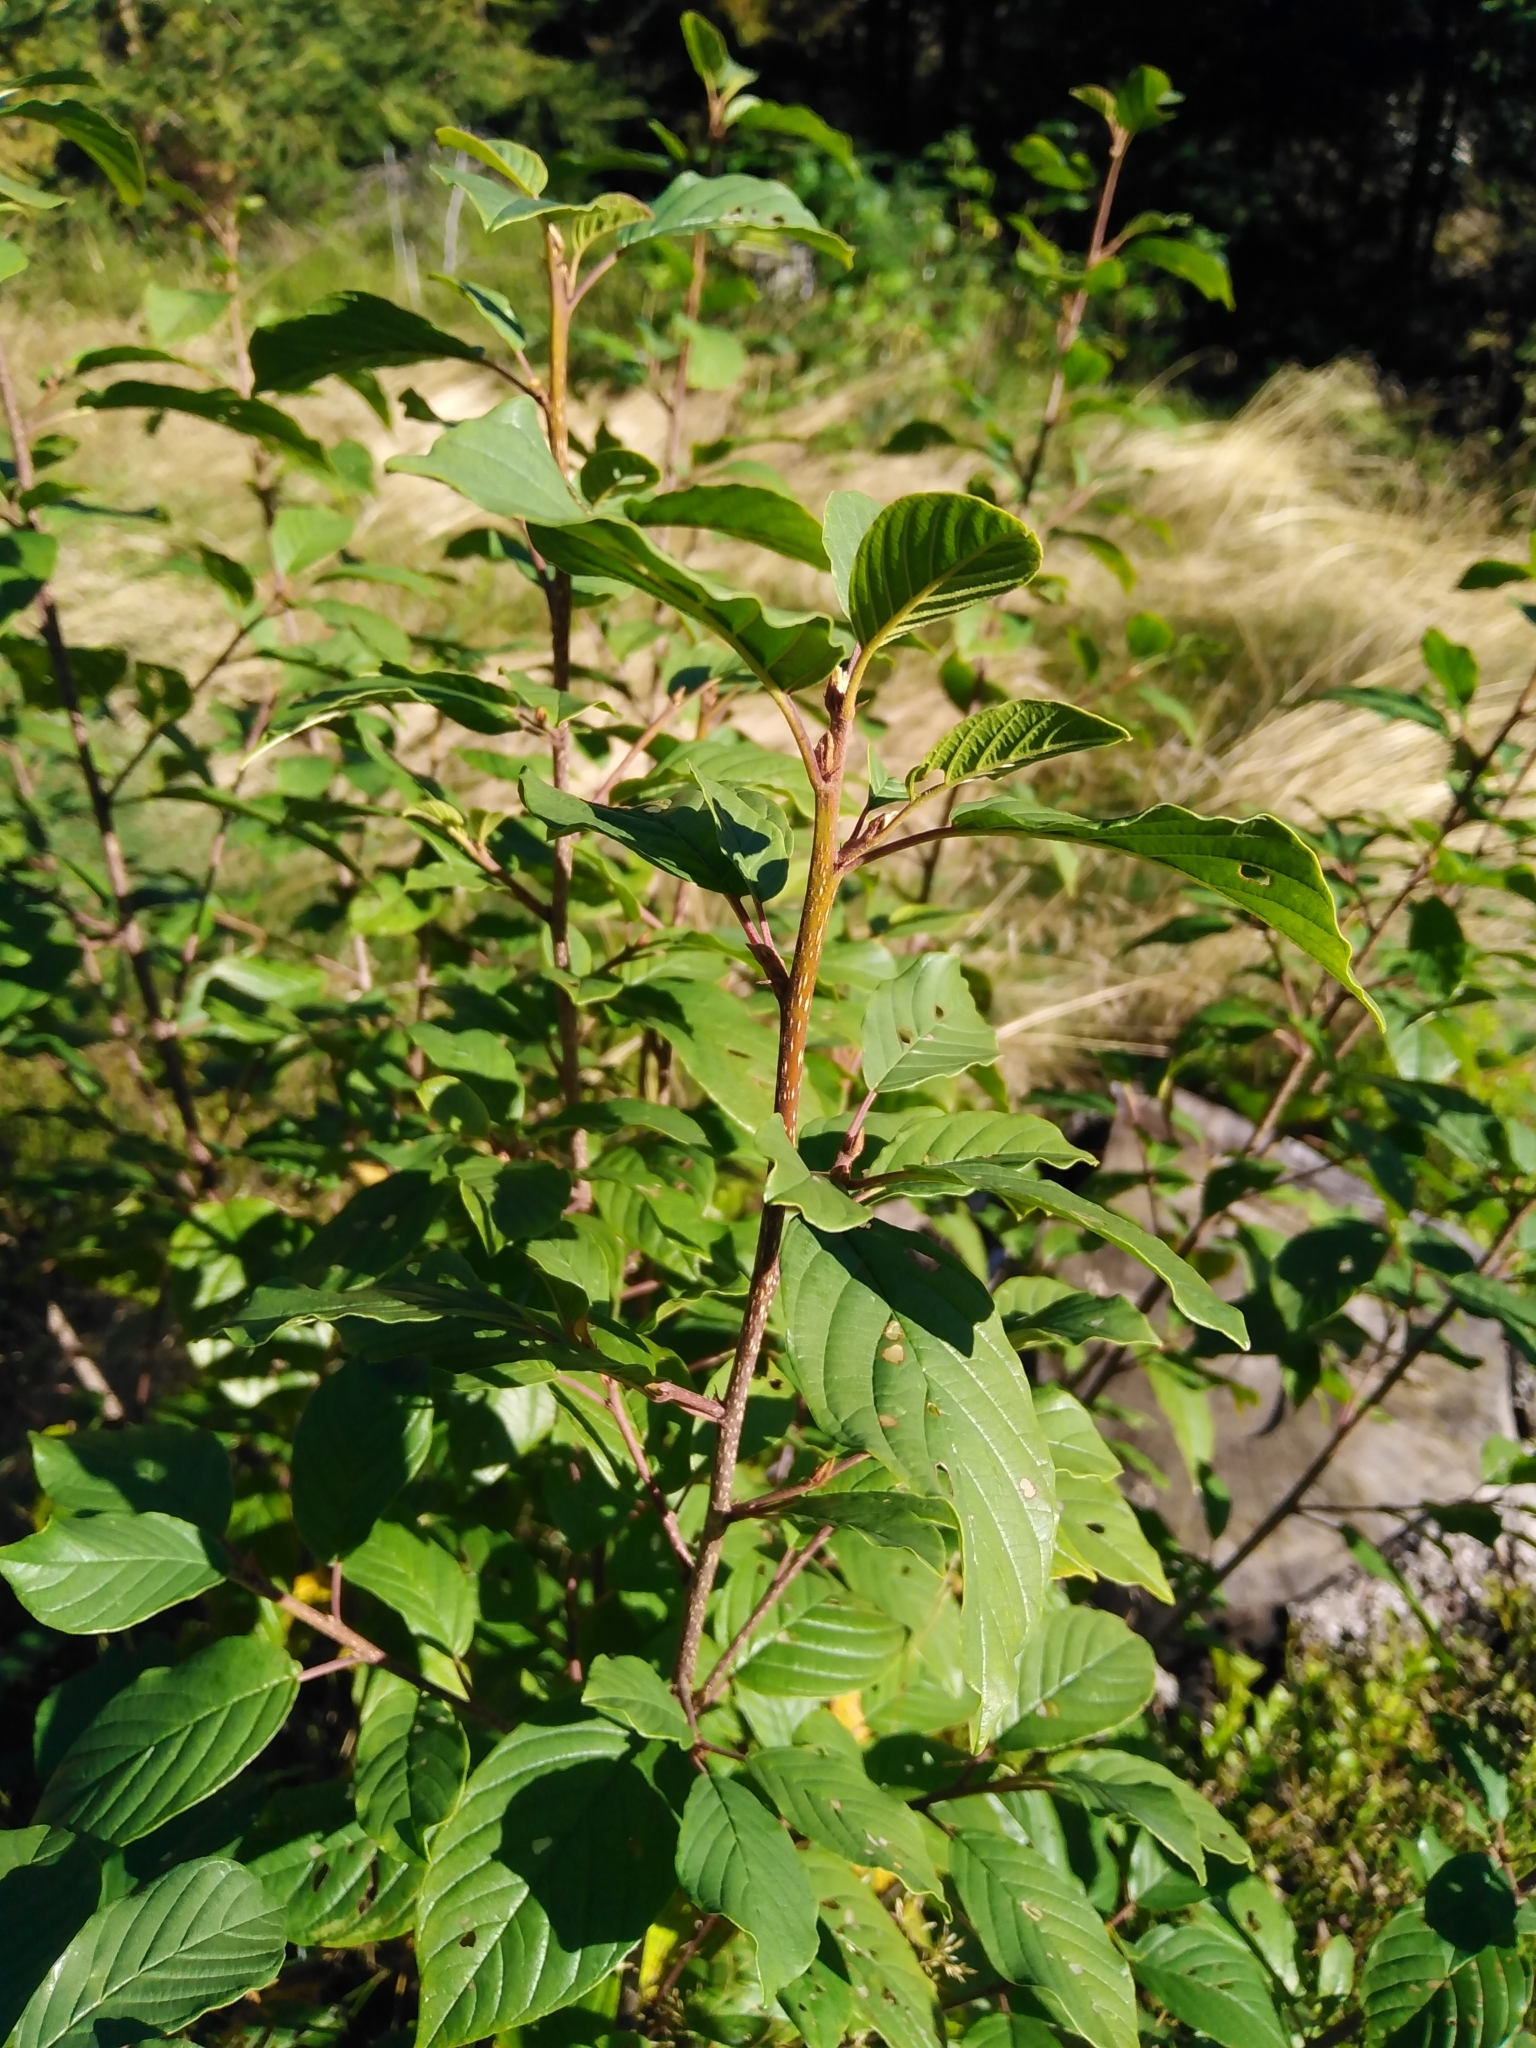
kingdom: Plantae
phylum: Tracheophyta
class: Magnoliopsida
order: Rosales
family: Rhamnaceae
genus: Frangula
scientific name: Frangula alnus
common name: Alder buckthorn
